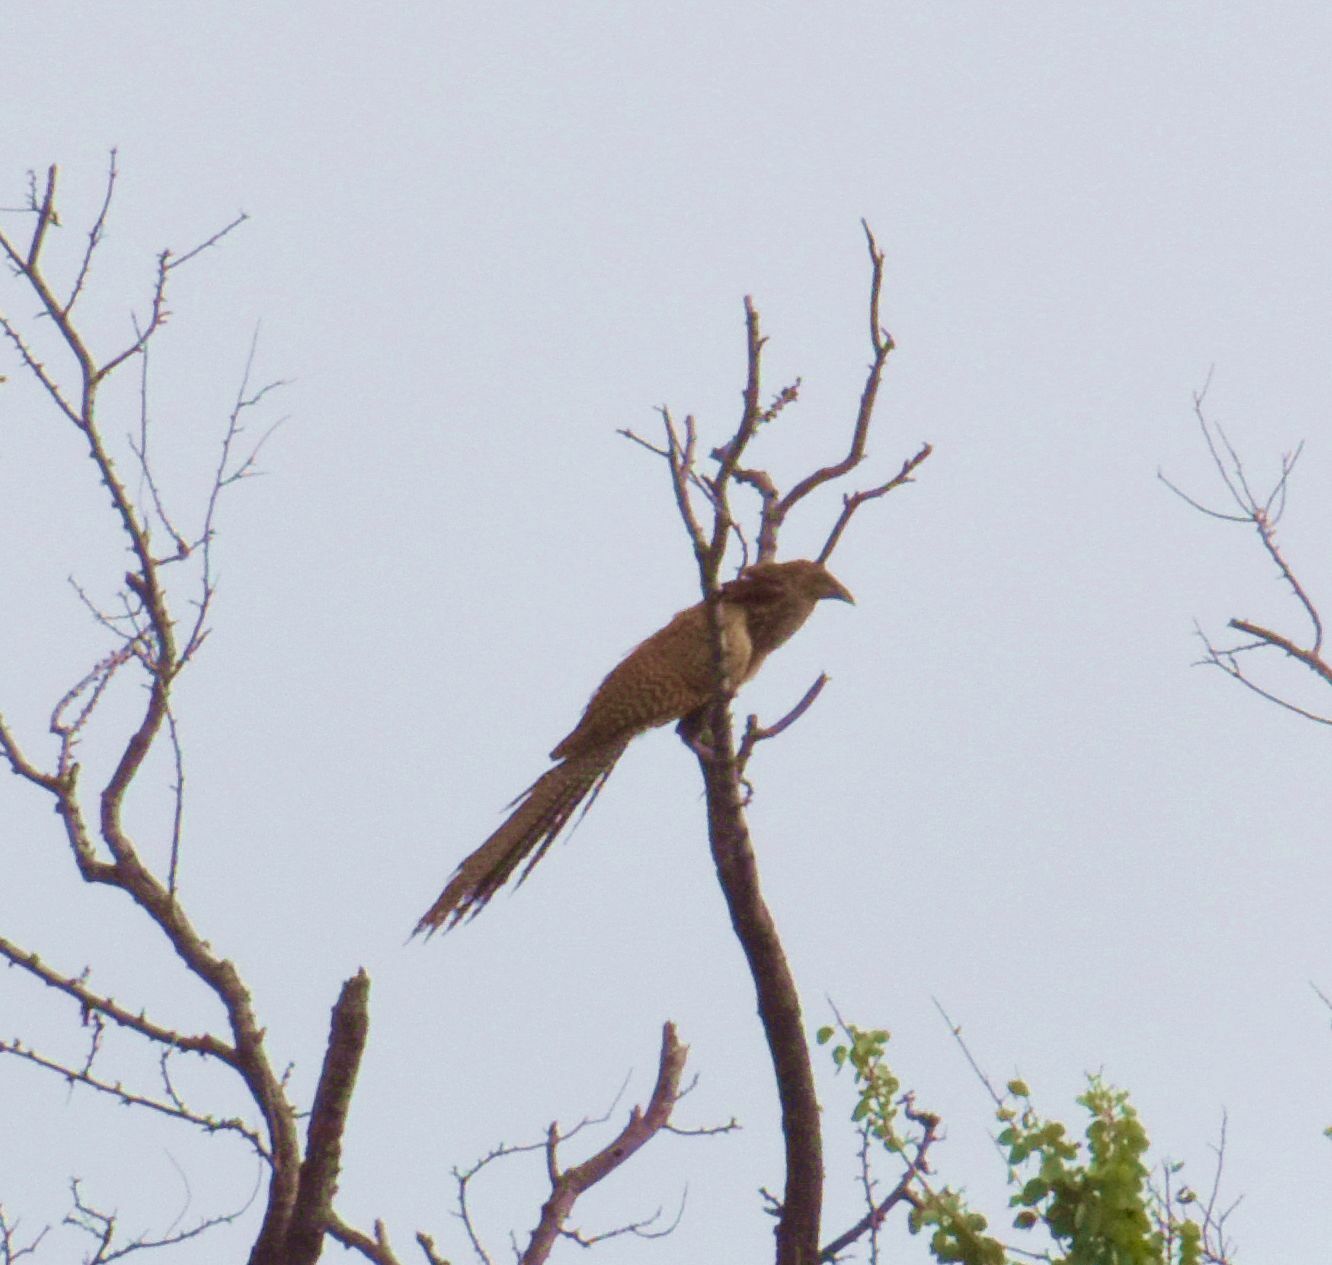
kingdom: Animalia
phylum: Chordata
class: Aves
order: Cuculiformes
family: Cuculidae
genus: Centropus
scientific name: Centropus phasianinus
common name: Pheasant coucal
